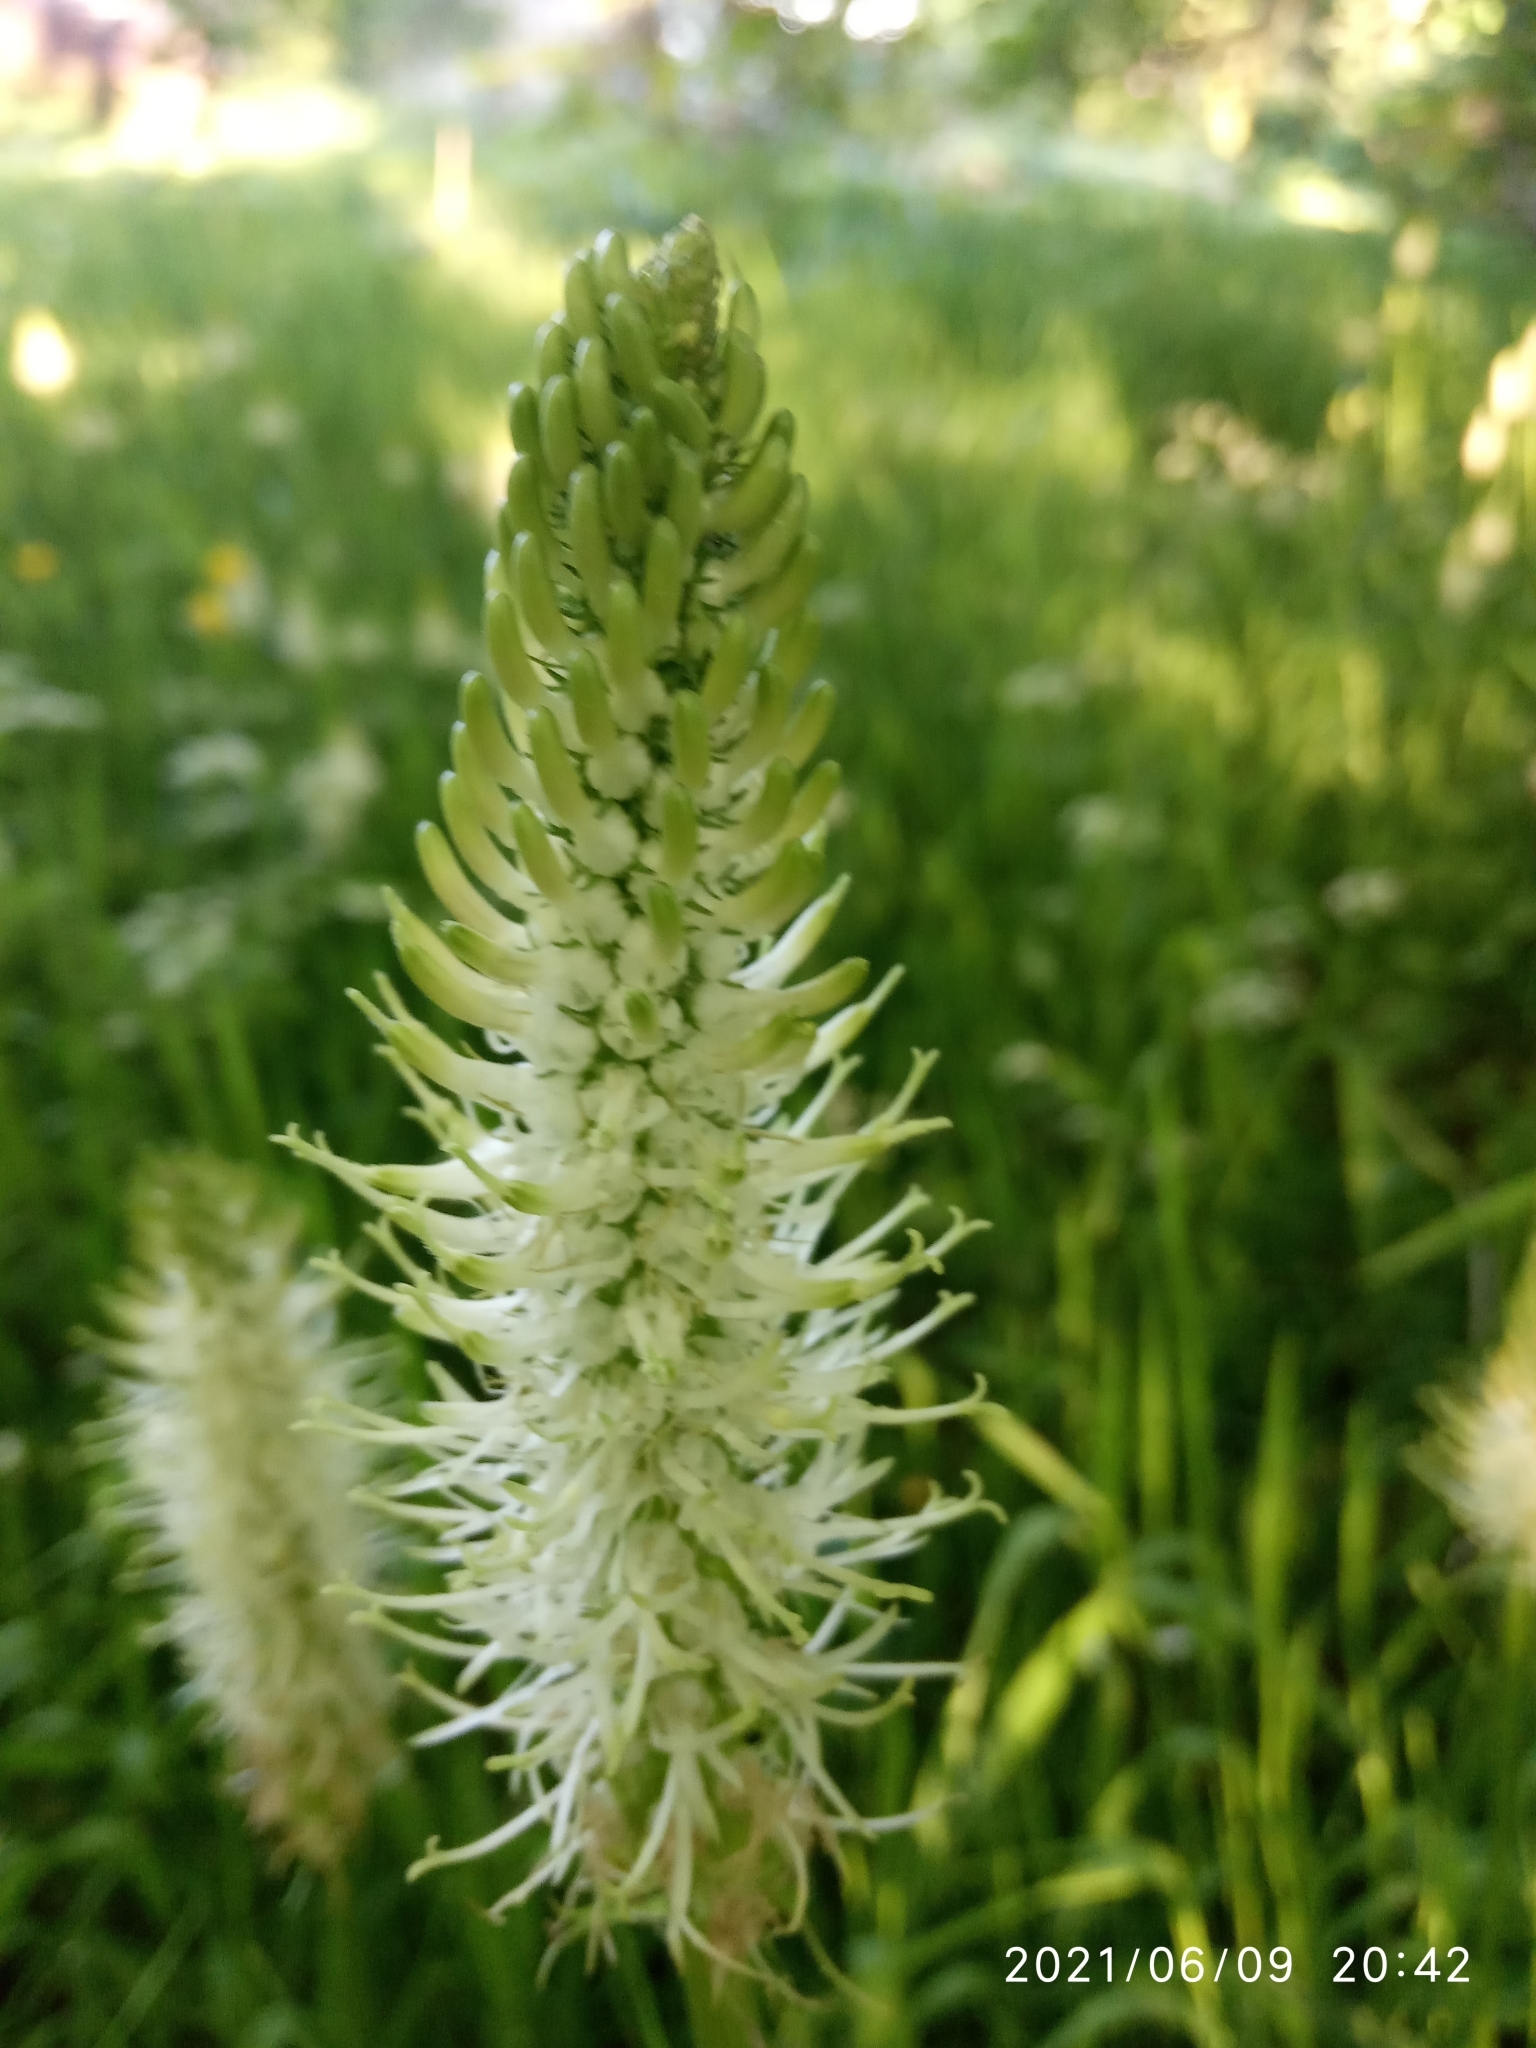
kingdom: Plantae
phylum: Tracheophyta
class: Magnoliopsida
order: Asterales
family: Campanulaceae
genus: Phyteuma
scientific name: Phyteuma spicatum
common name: Spiked rampion
